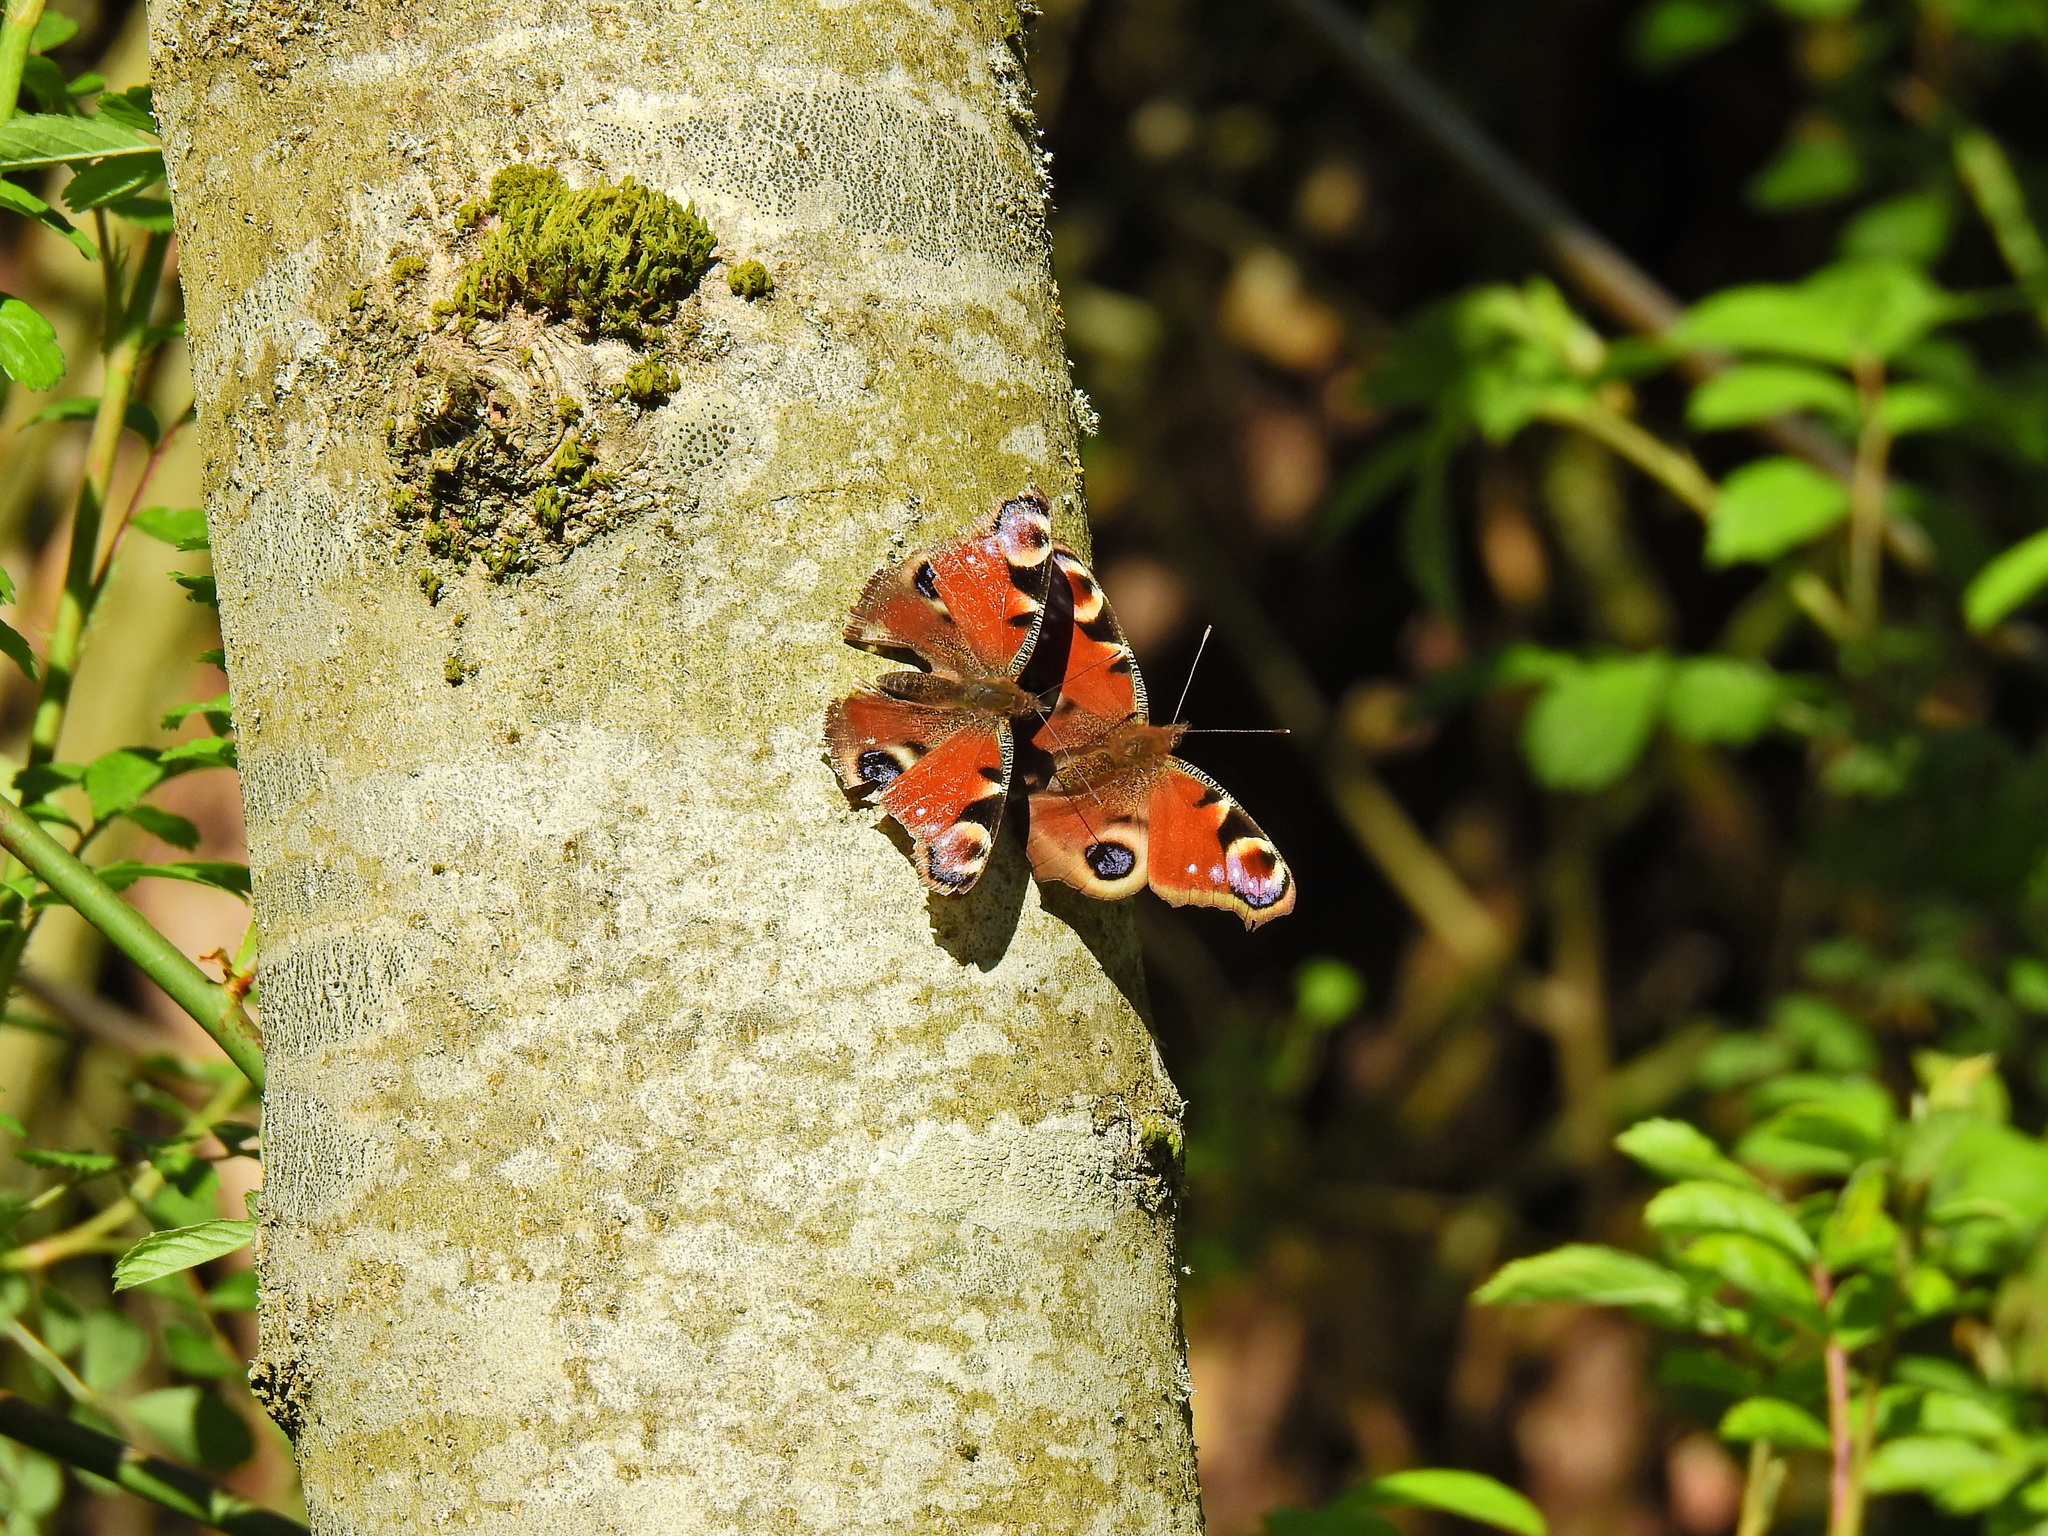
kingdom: Animalia
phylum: Arthropoda
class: Insecta
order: Lepidoptera
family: Nymphalidae
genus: Aglais
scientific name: Aglais io
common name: Peacock
